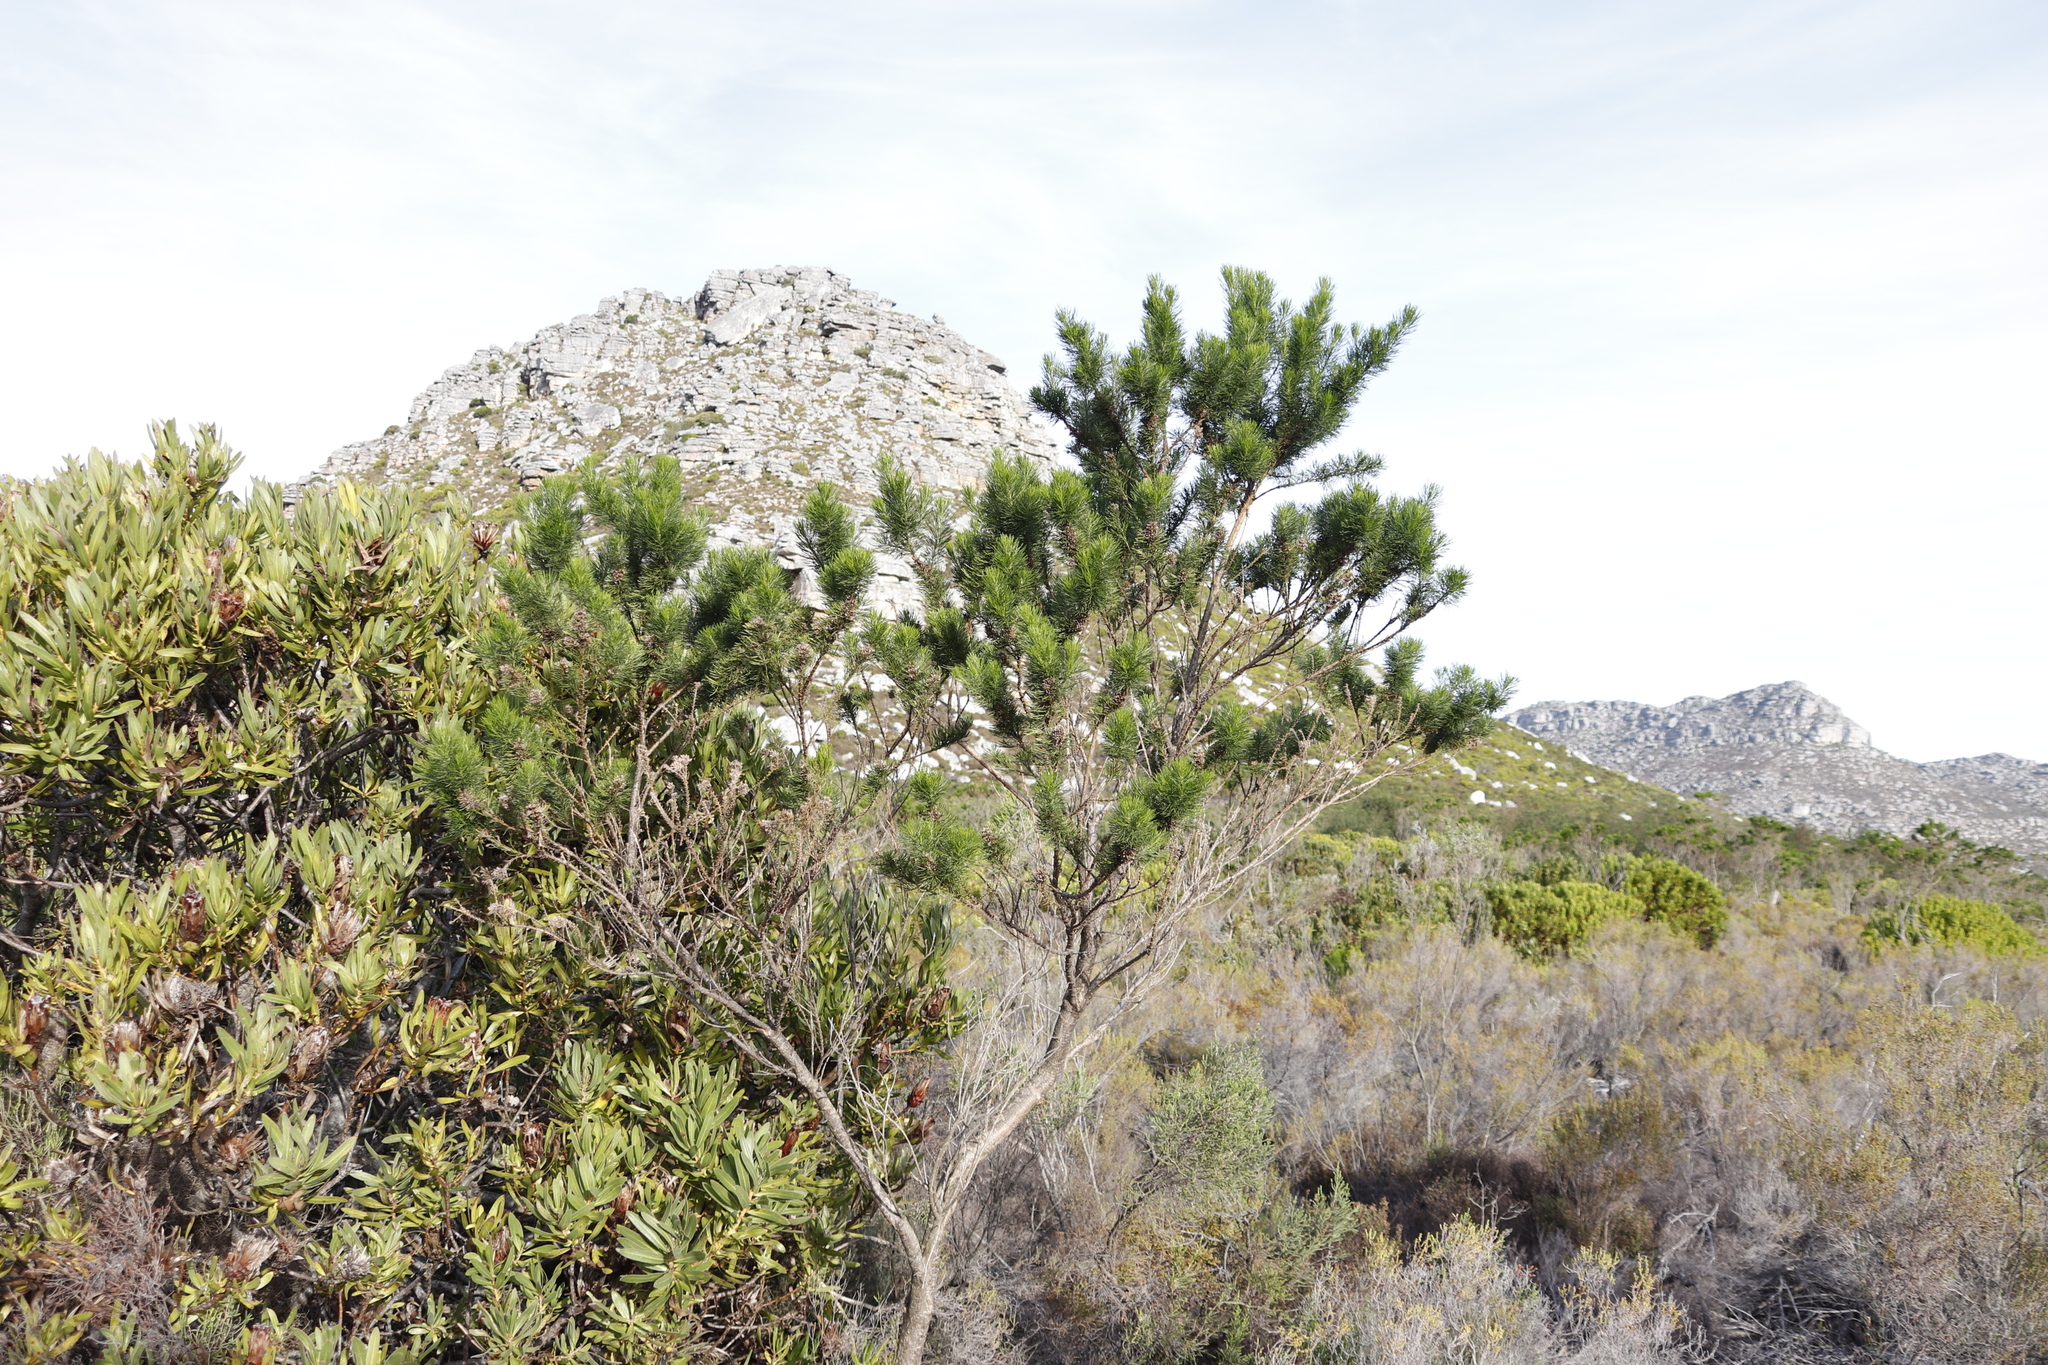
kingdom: Plantae
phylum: Tracheophyta
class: Magnoliopsida
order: Fabales
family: Fabaceae
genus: Psoralea
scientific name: Psoralea pinnata
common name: African scurfpea
